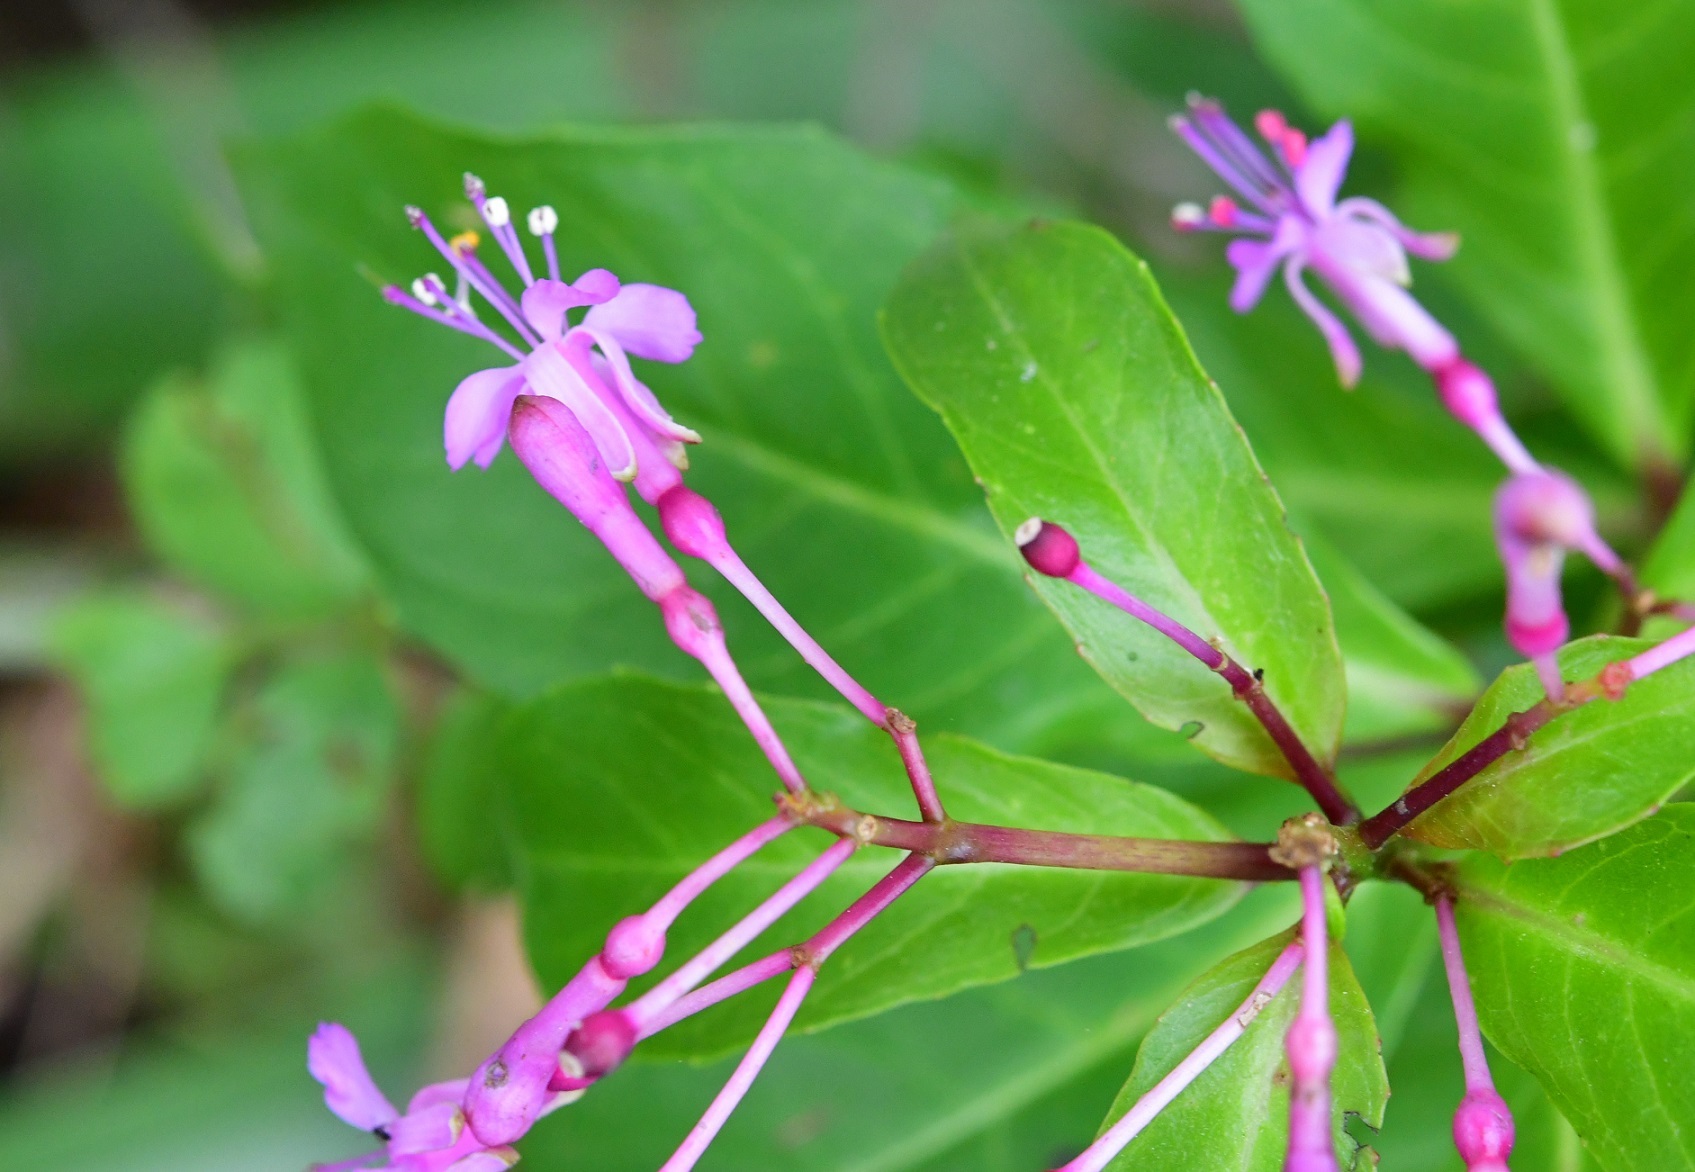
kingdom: Plantae
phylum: Tracheophyta
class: Magnoliopsida
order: Myrtales
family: Onagraceae
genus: Fuchsia
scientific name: Fuchsia paniculata
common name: Shrubby fuchsia
